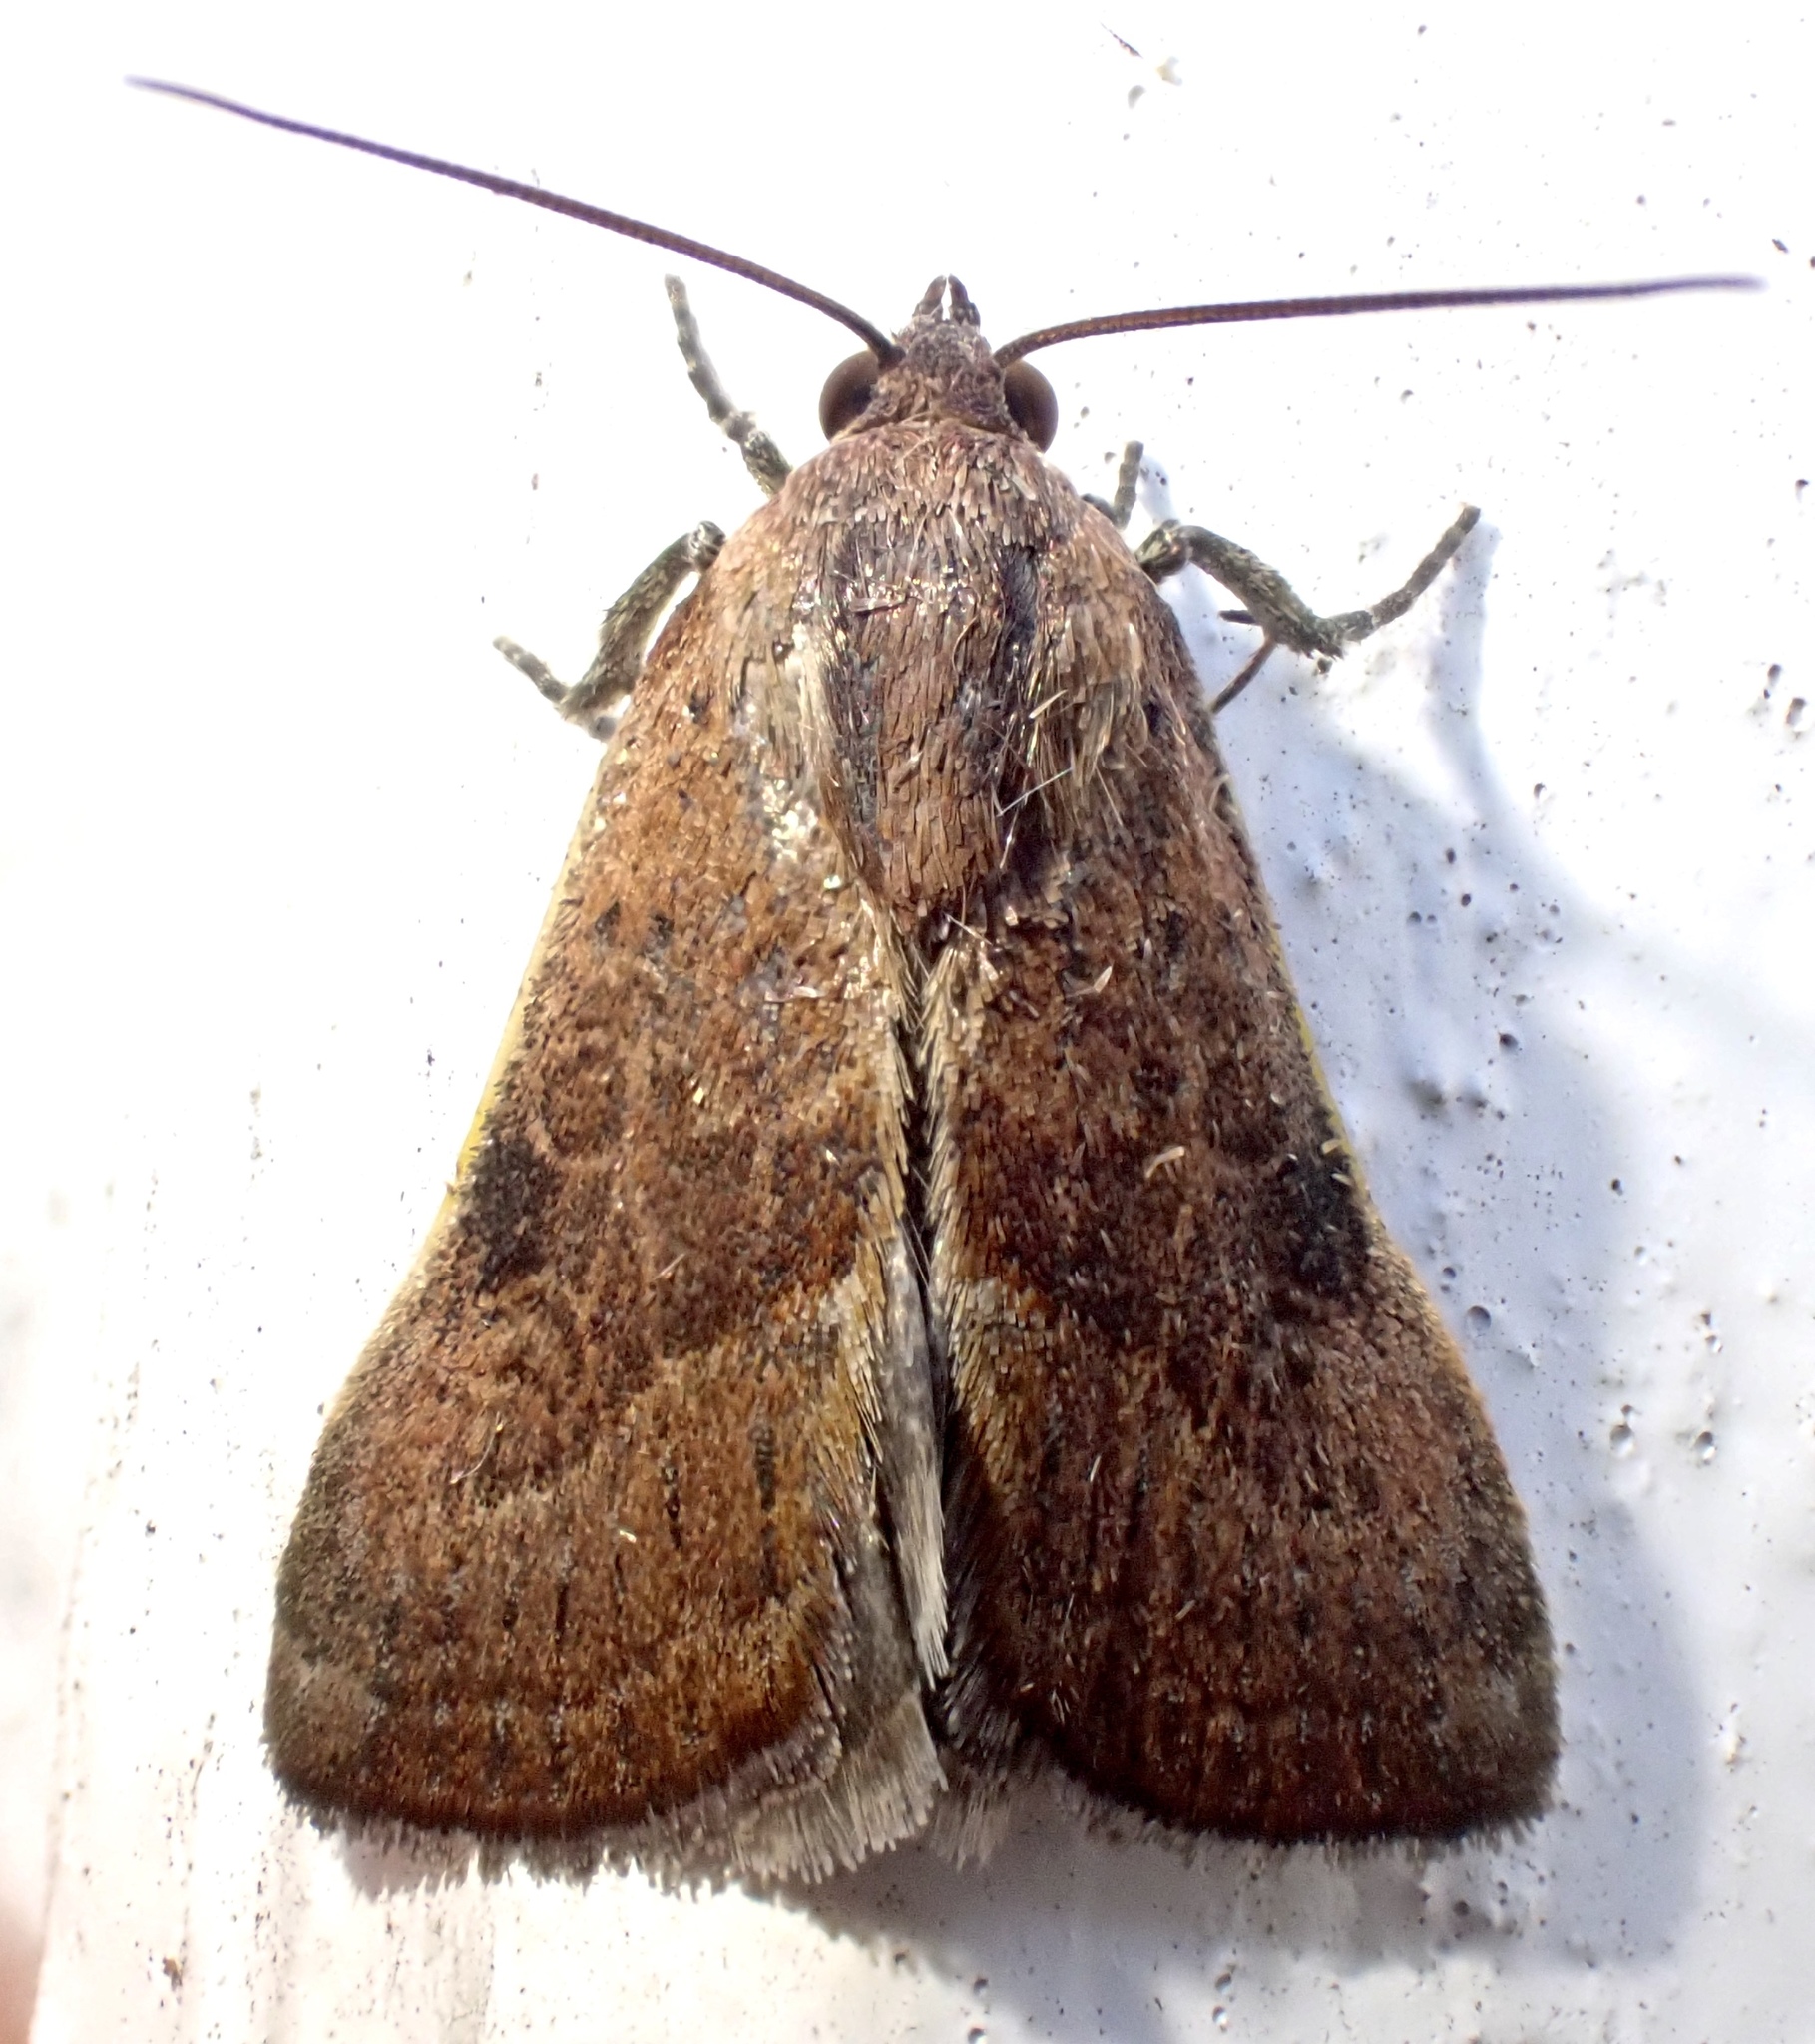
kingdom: Animalia
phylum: Arthropoda
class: Insecta
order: Lepidoptera
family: Noctuidae
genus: Galgula
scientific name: Galgula partita
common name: Wedgeling
